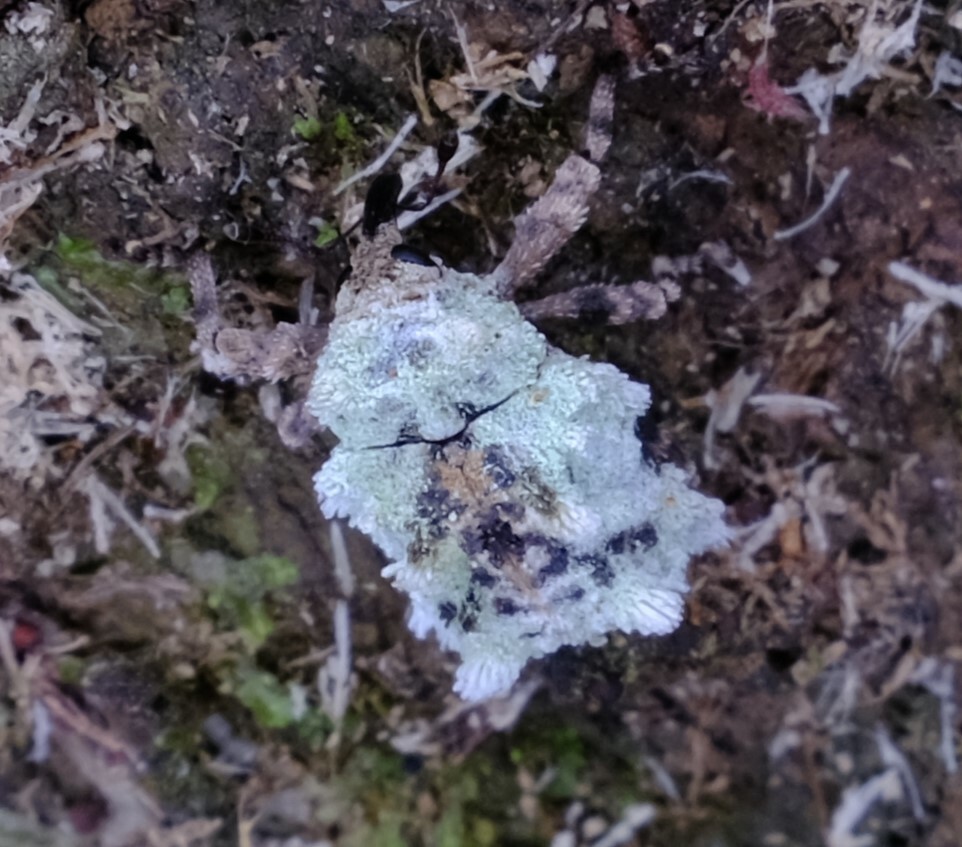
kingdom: Animalia
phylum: Arthropoda
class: Insecta
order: Coleoptera
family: Curculionidae
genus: Chimades
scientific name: Chimades lanosus
